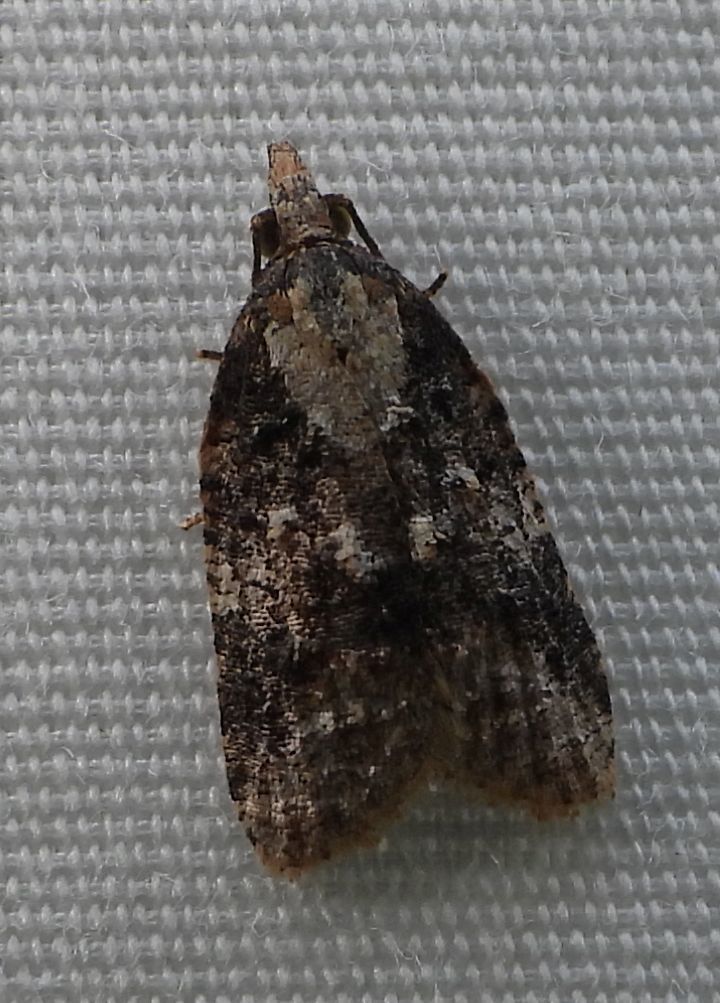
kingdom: Animalia
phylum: Arthropoda
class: Insecta
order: Lepidoptera
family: Tortricidae
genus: Platynota
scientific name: Platynota exasperatana
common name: Exasperating platynota moth
